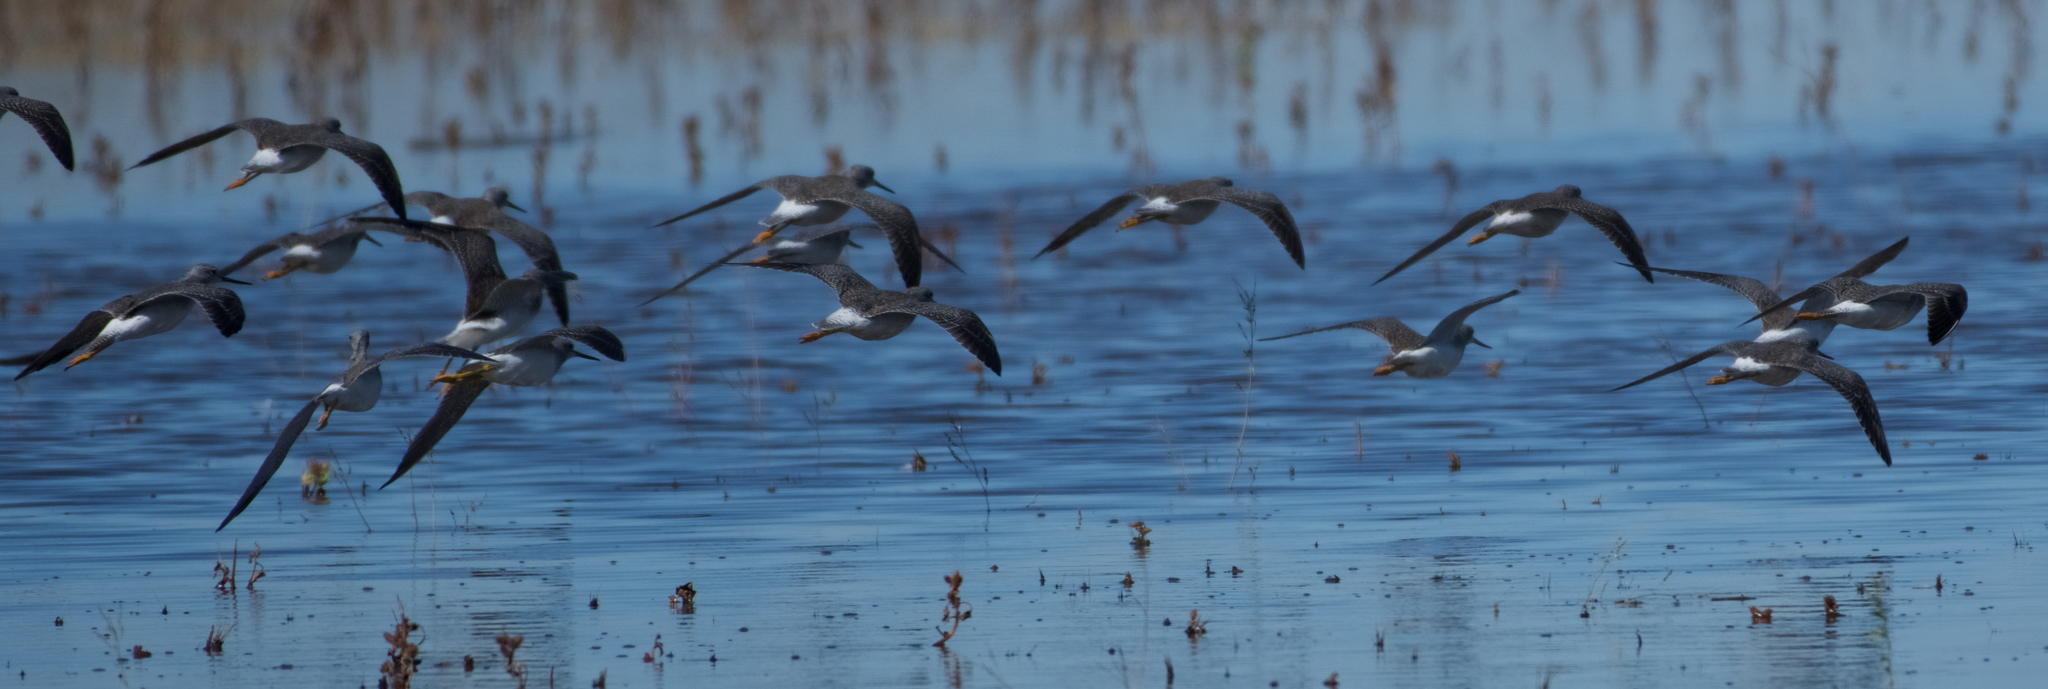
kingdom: Animalia
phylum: Chordata
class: Aves
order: Charadriiformes
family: Scolopacidae
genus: Tringa
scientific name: Tringa melanoleuca
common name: Greater yellowlegs
